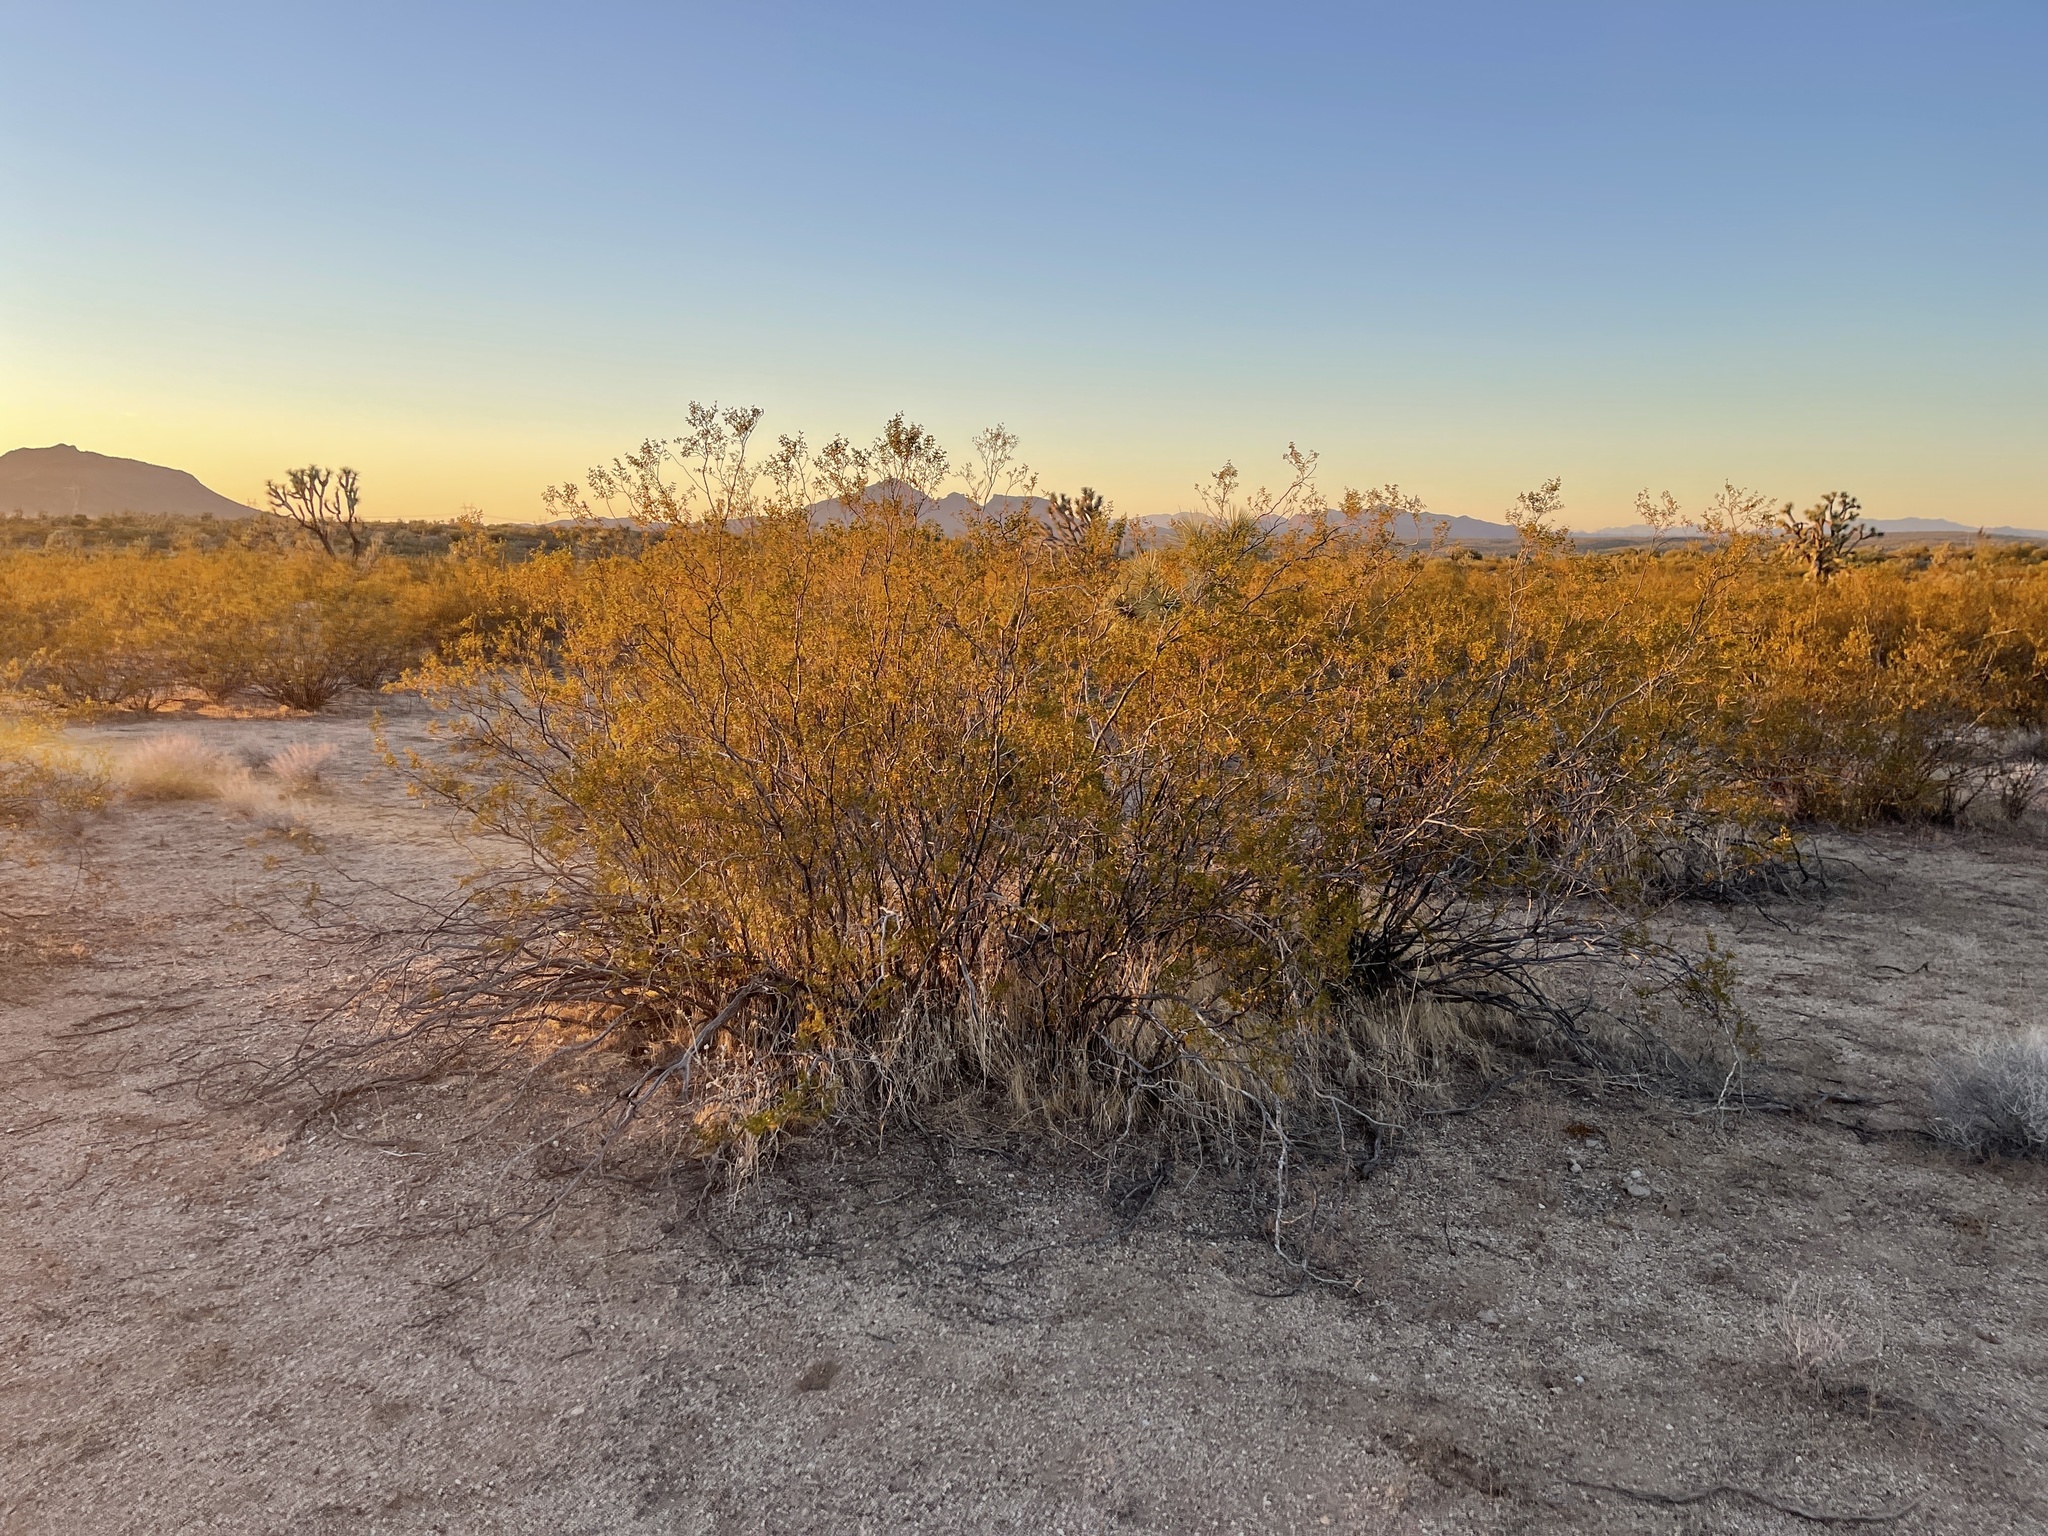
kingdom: Plantae
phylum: Tracheophyta
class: Magnoliopsida
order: Zygophyllales
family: Zygophyllaceae
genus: Larrea
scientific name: Larrea tridentata
